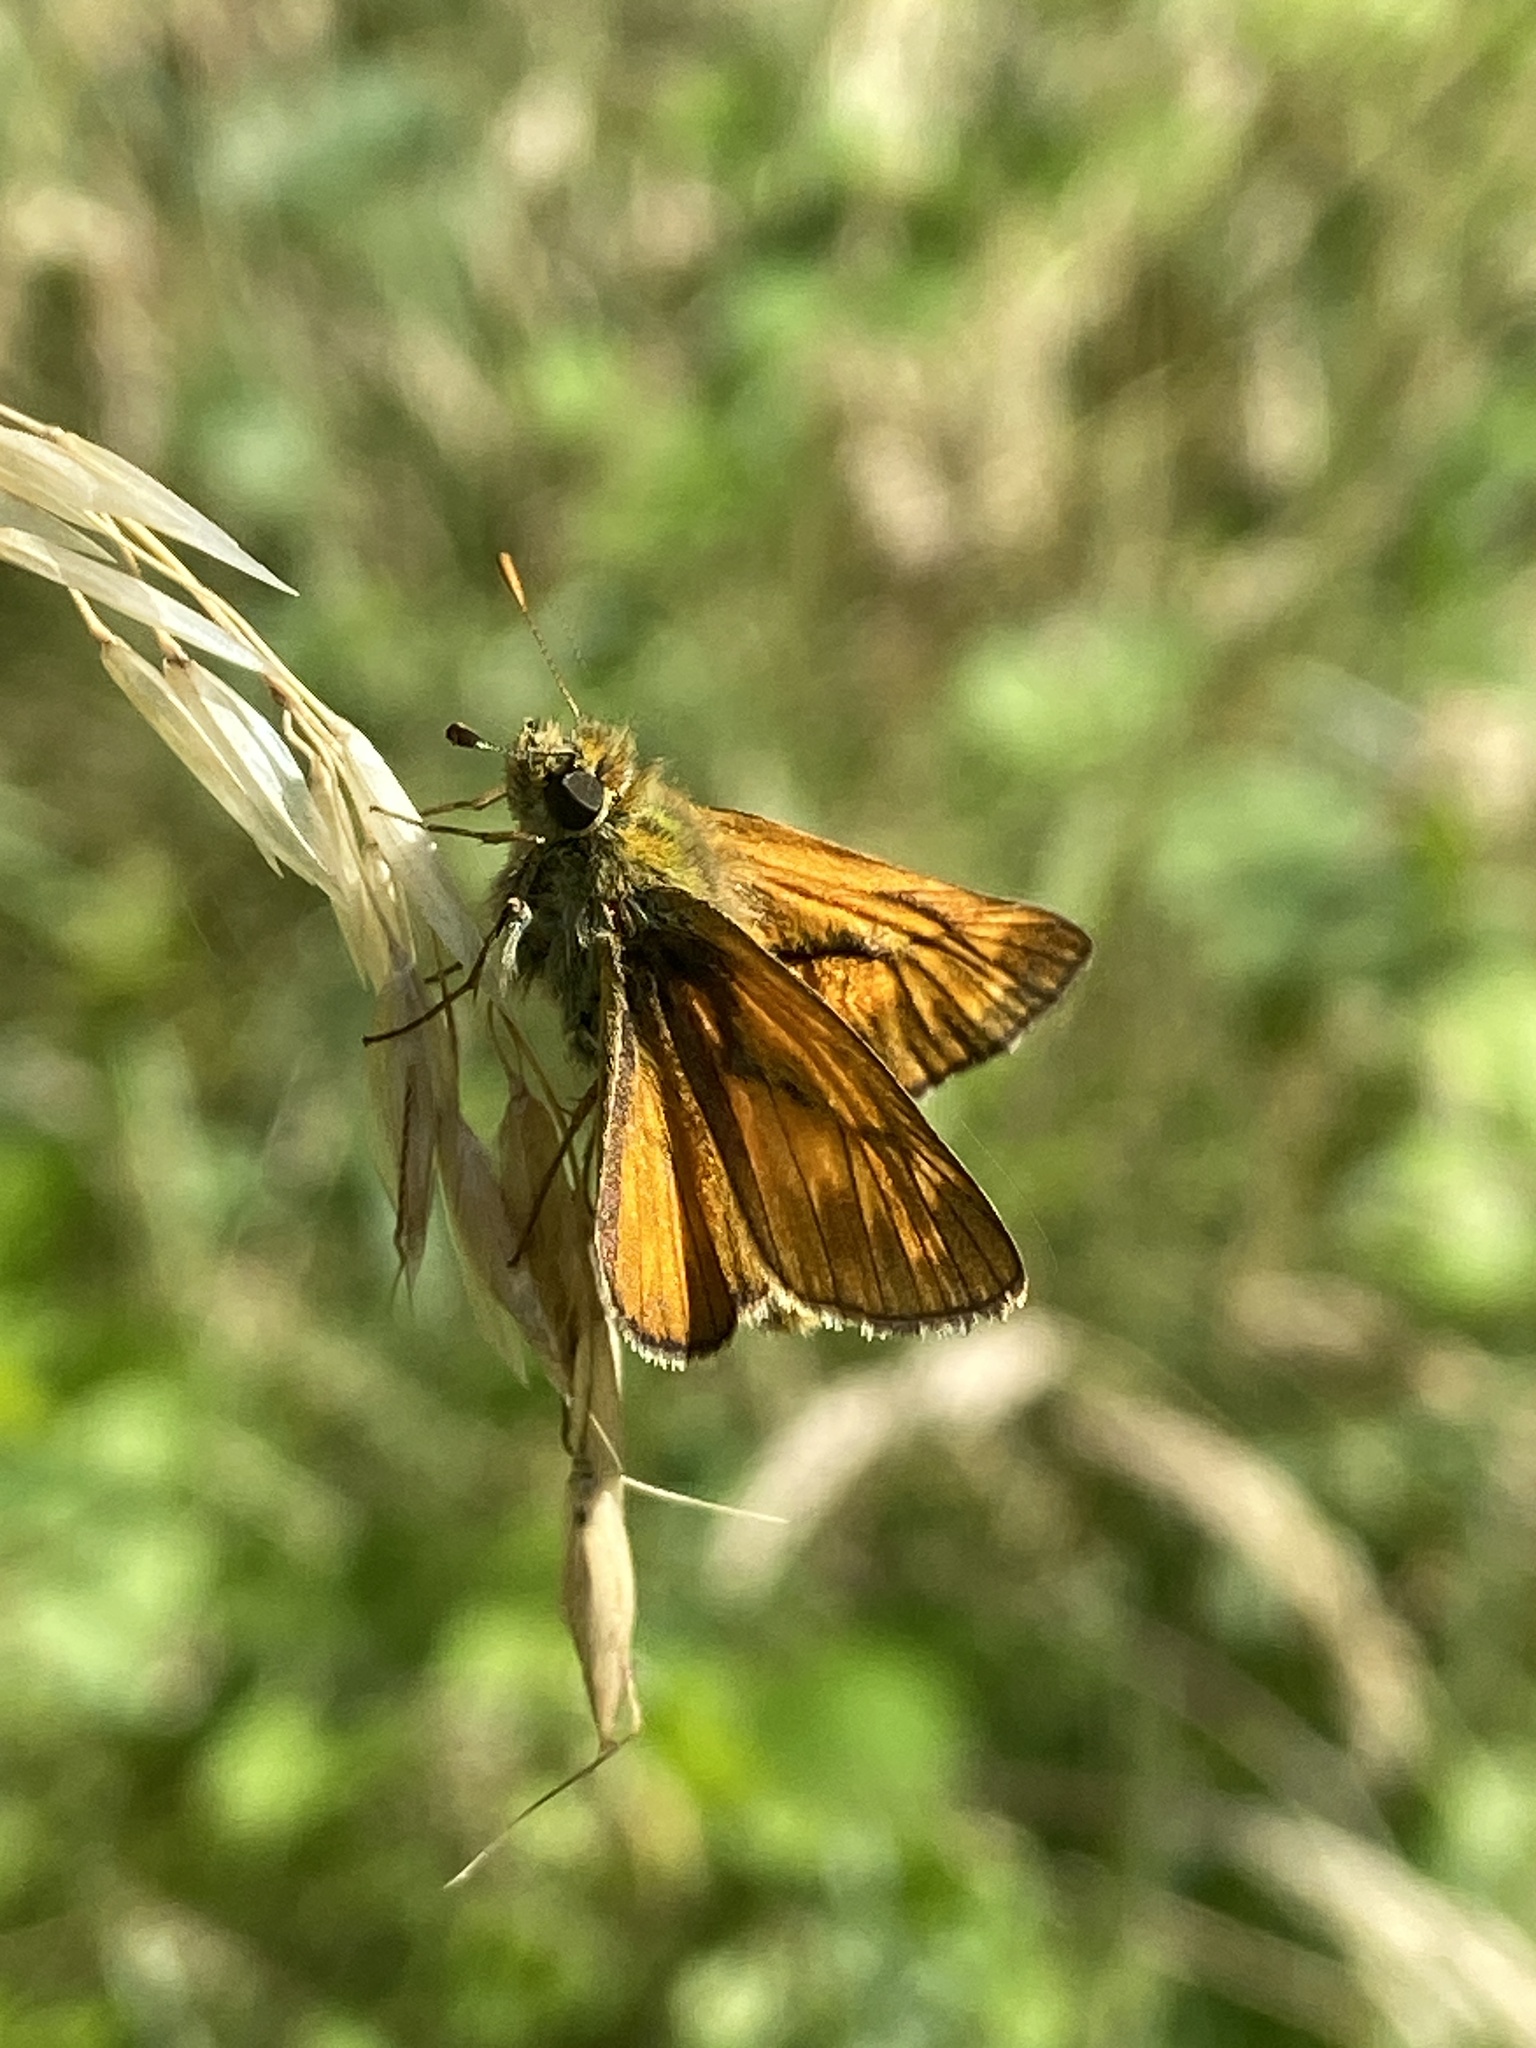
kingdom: Animalia
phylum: Arthropoda
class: Insecta
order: Lepidoptera
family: Hesperiidae
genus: Ochlodes
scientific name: Ochlodes venata
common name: Large skipper
